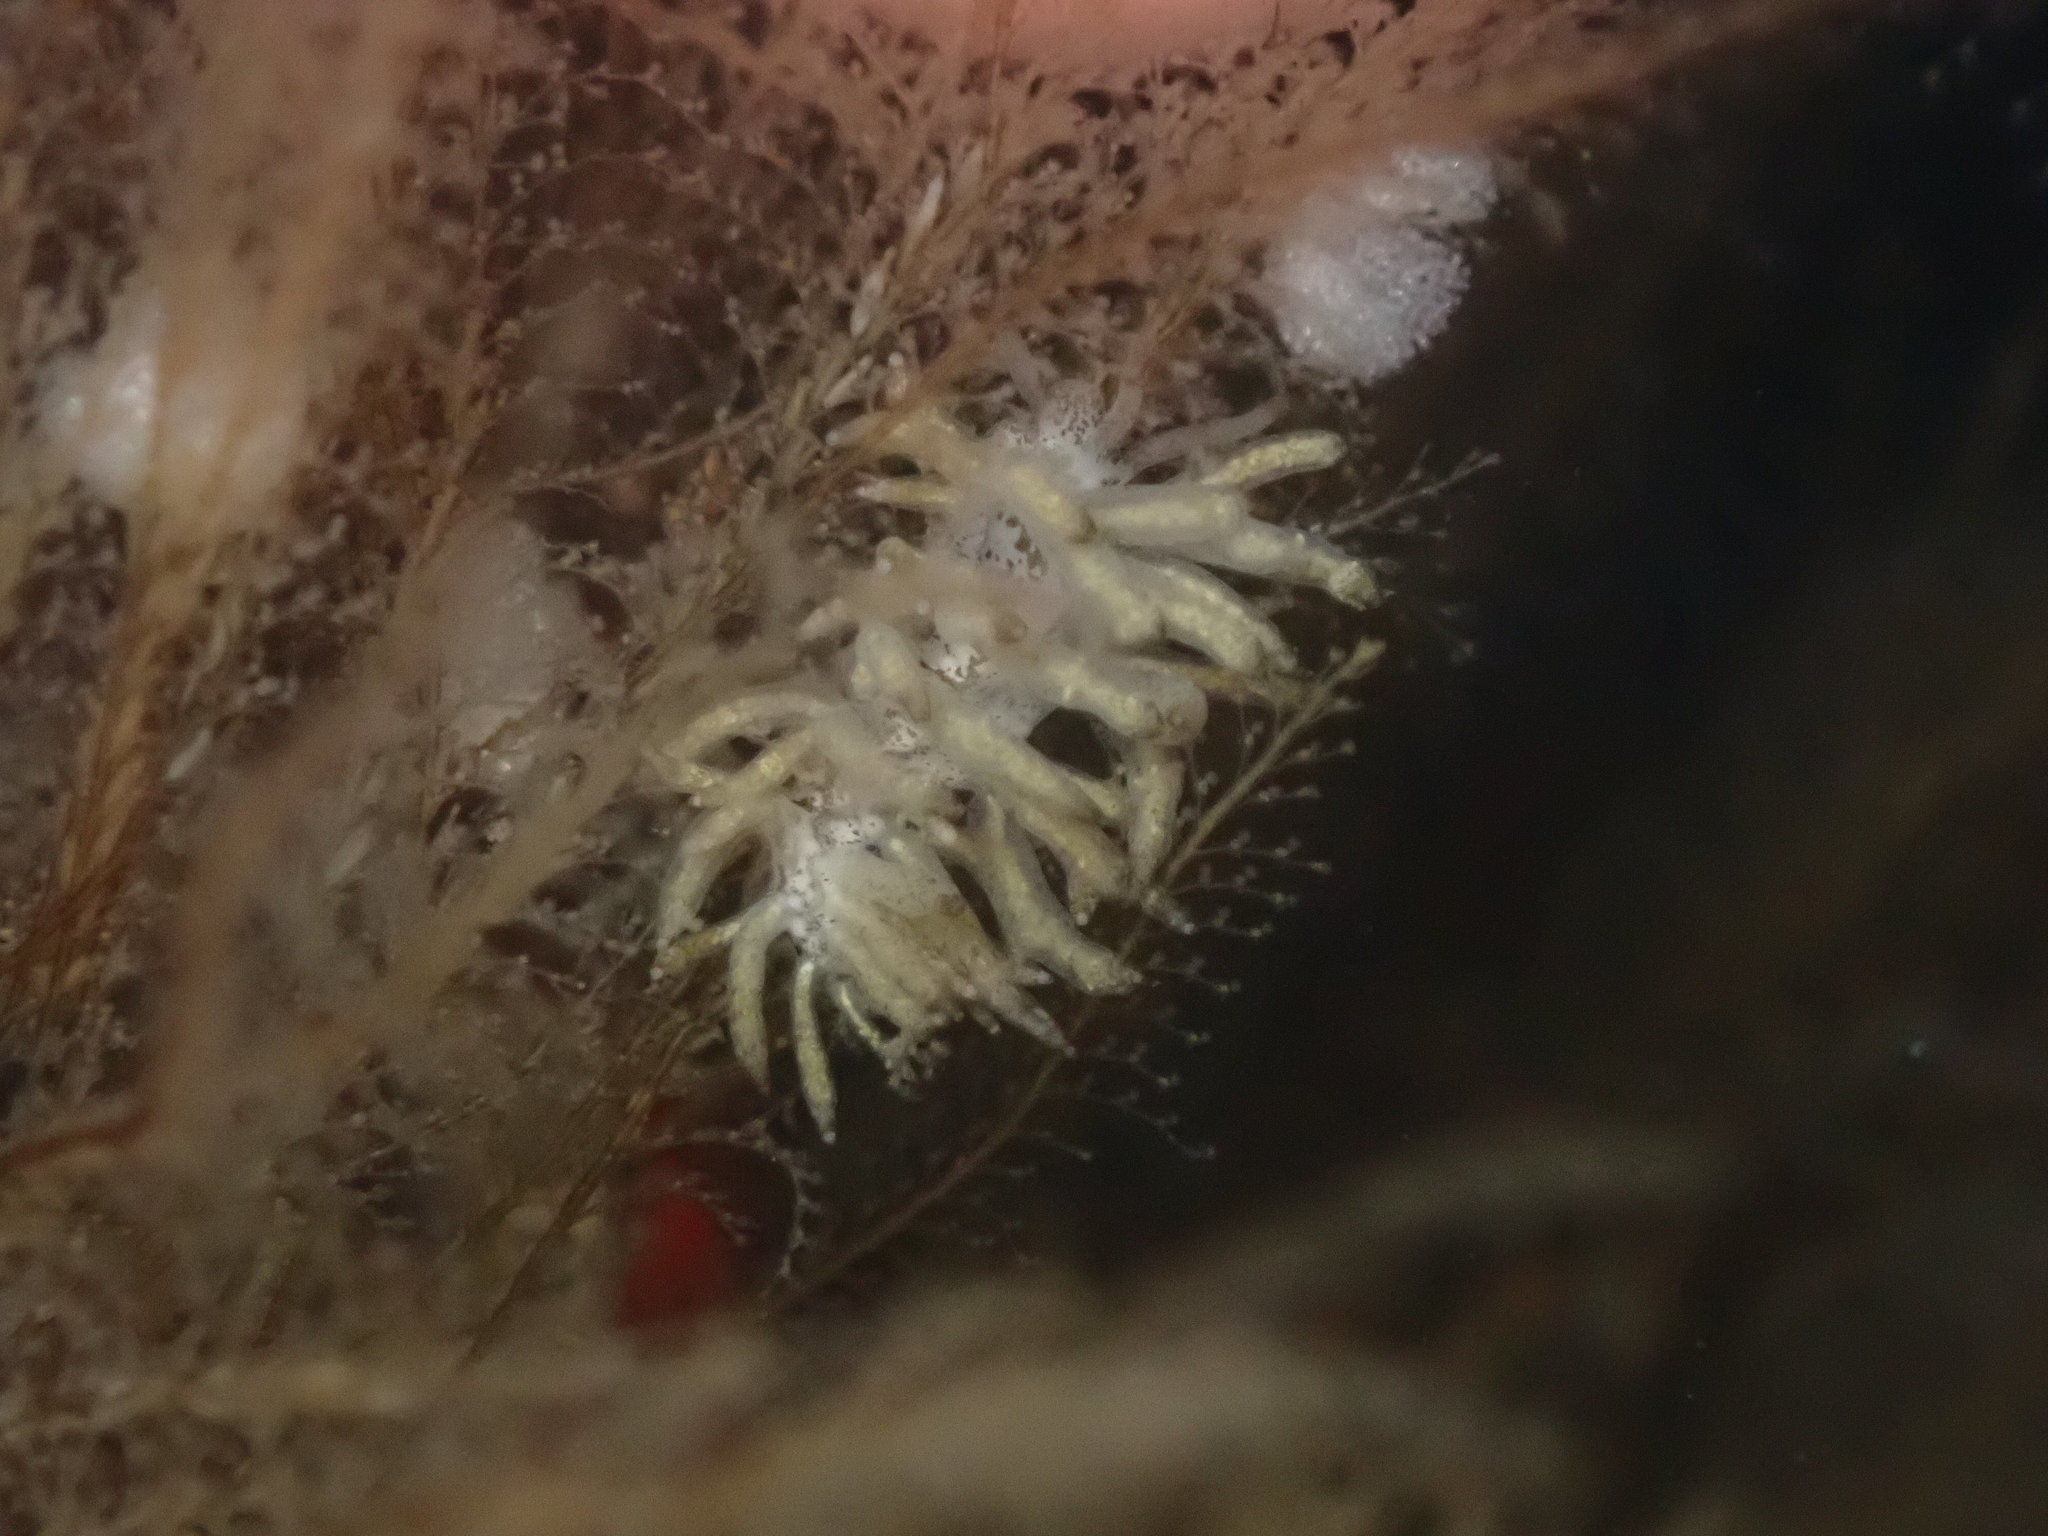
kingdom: Animalia
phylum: Mollusca
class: Gastropoda
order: Nudibranchia
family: Eubranchidae
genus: Eubranchus
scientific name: Eubranchus rustyus
